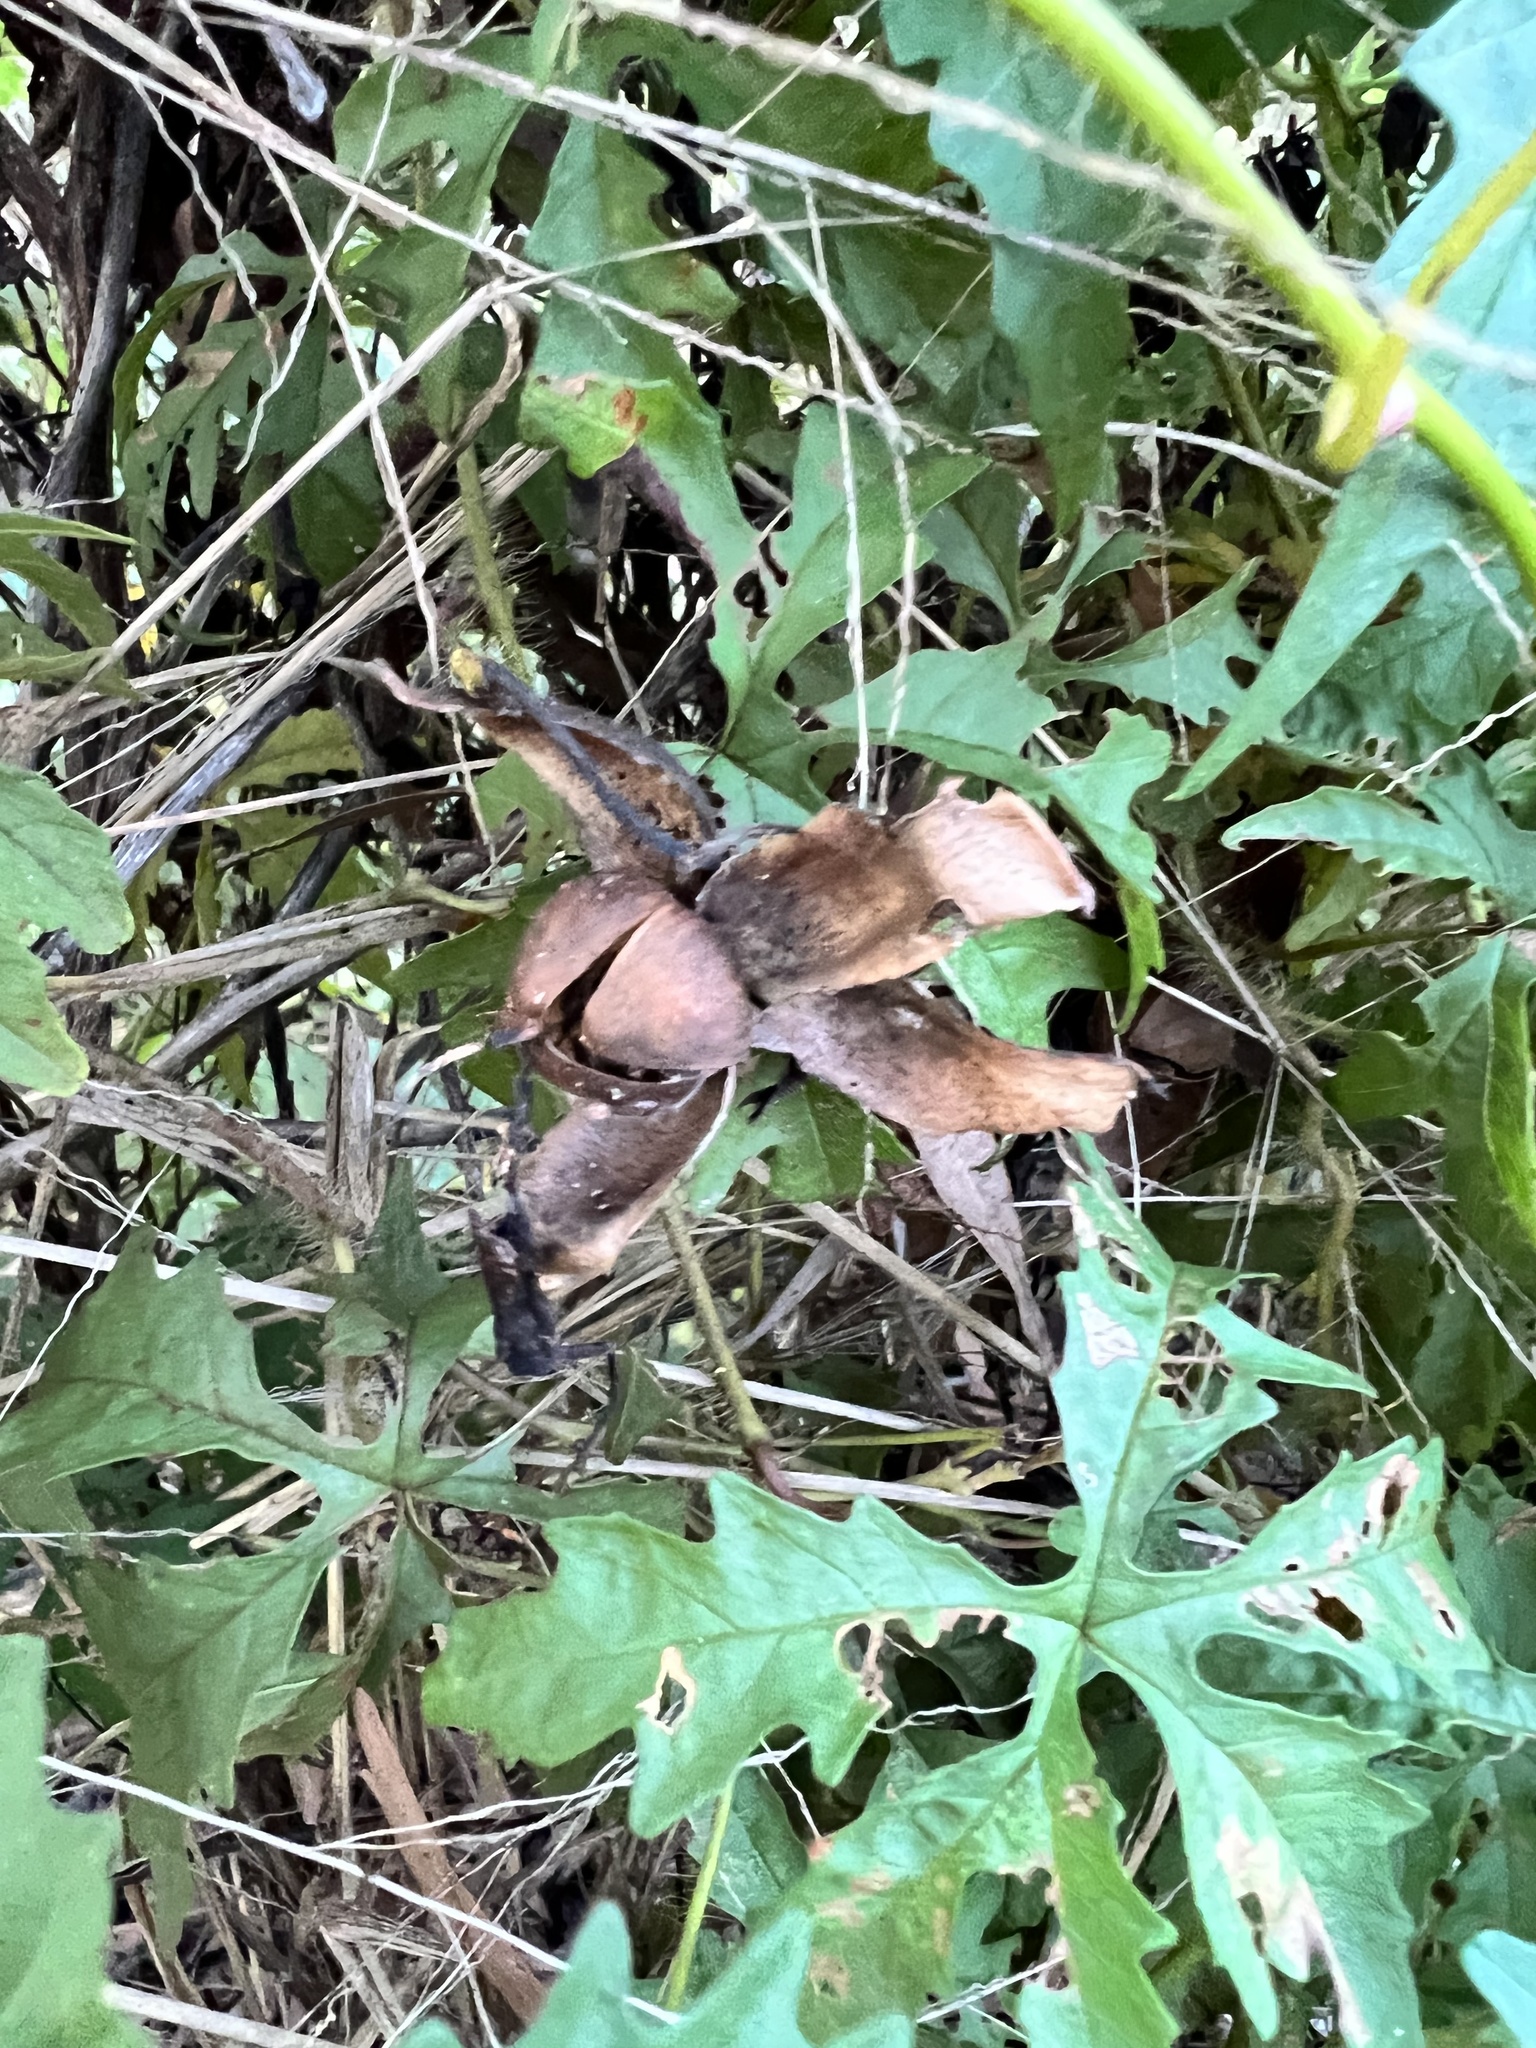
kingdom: Plantae
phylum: Tracheophyta
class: Magnoliopsida
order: Solanales
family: Convolvulaceae
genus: Distimake
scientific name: Distimake dissectus
